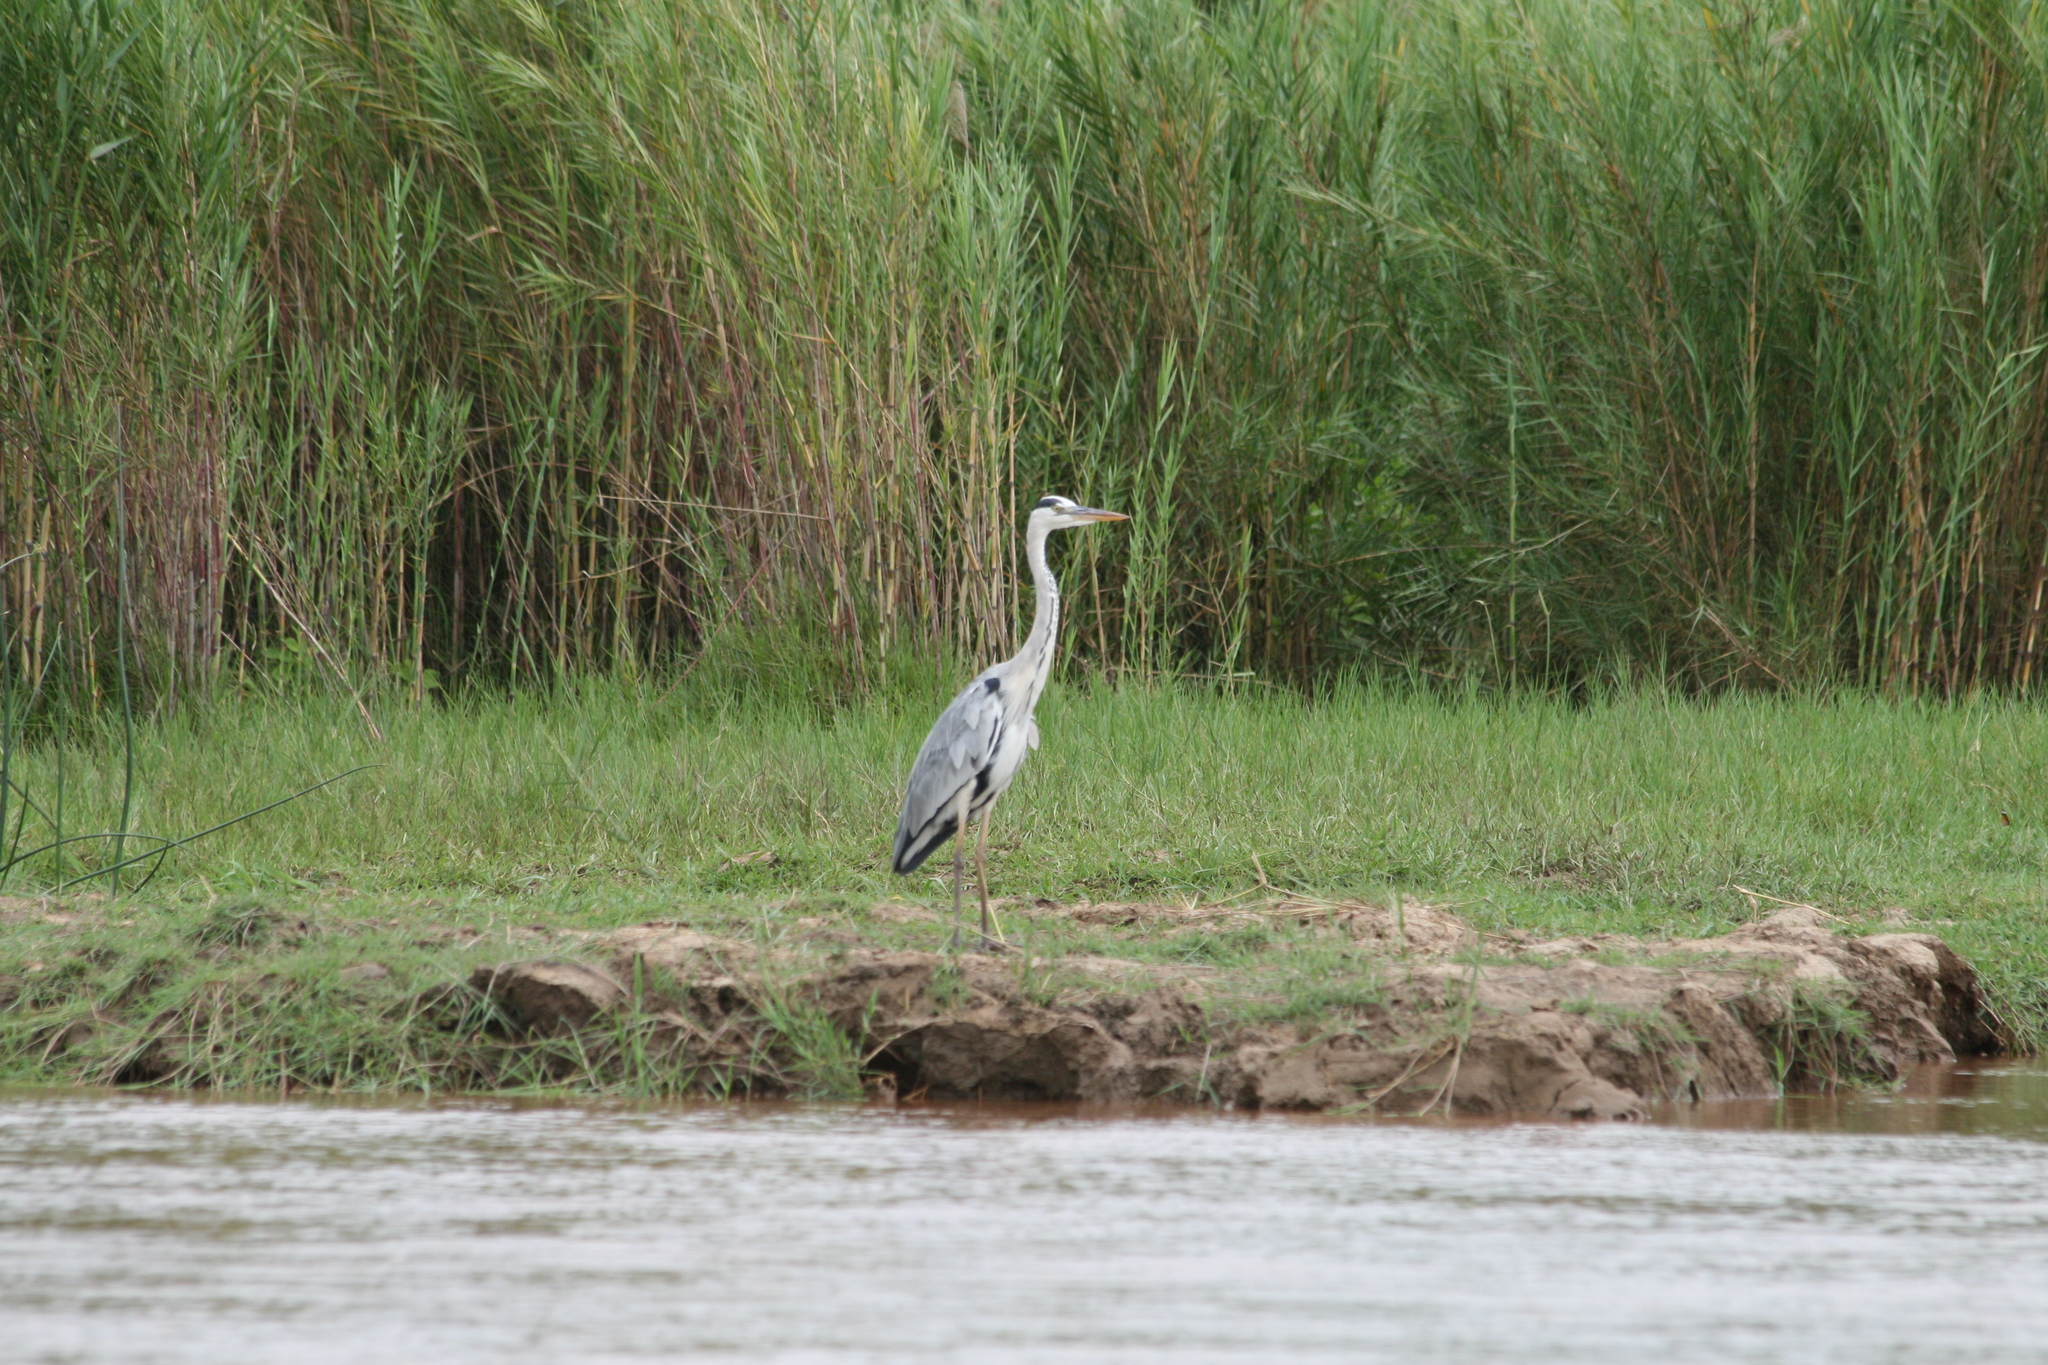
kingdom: Animalia
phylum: Chordata
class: Aves
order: Pelecaniformes
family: Ardeidae
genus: Ardea
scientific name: Ardea cinerea
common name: Grey heron
